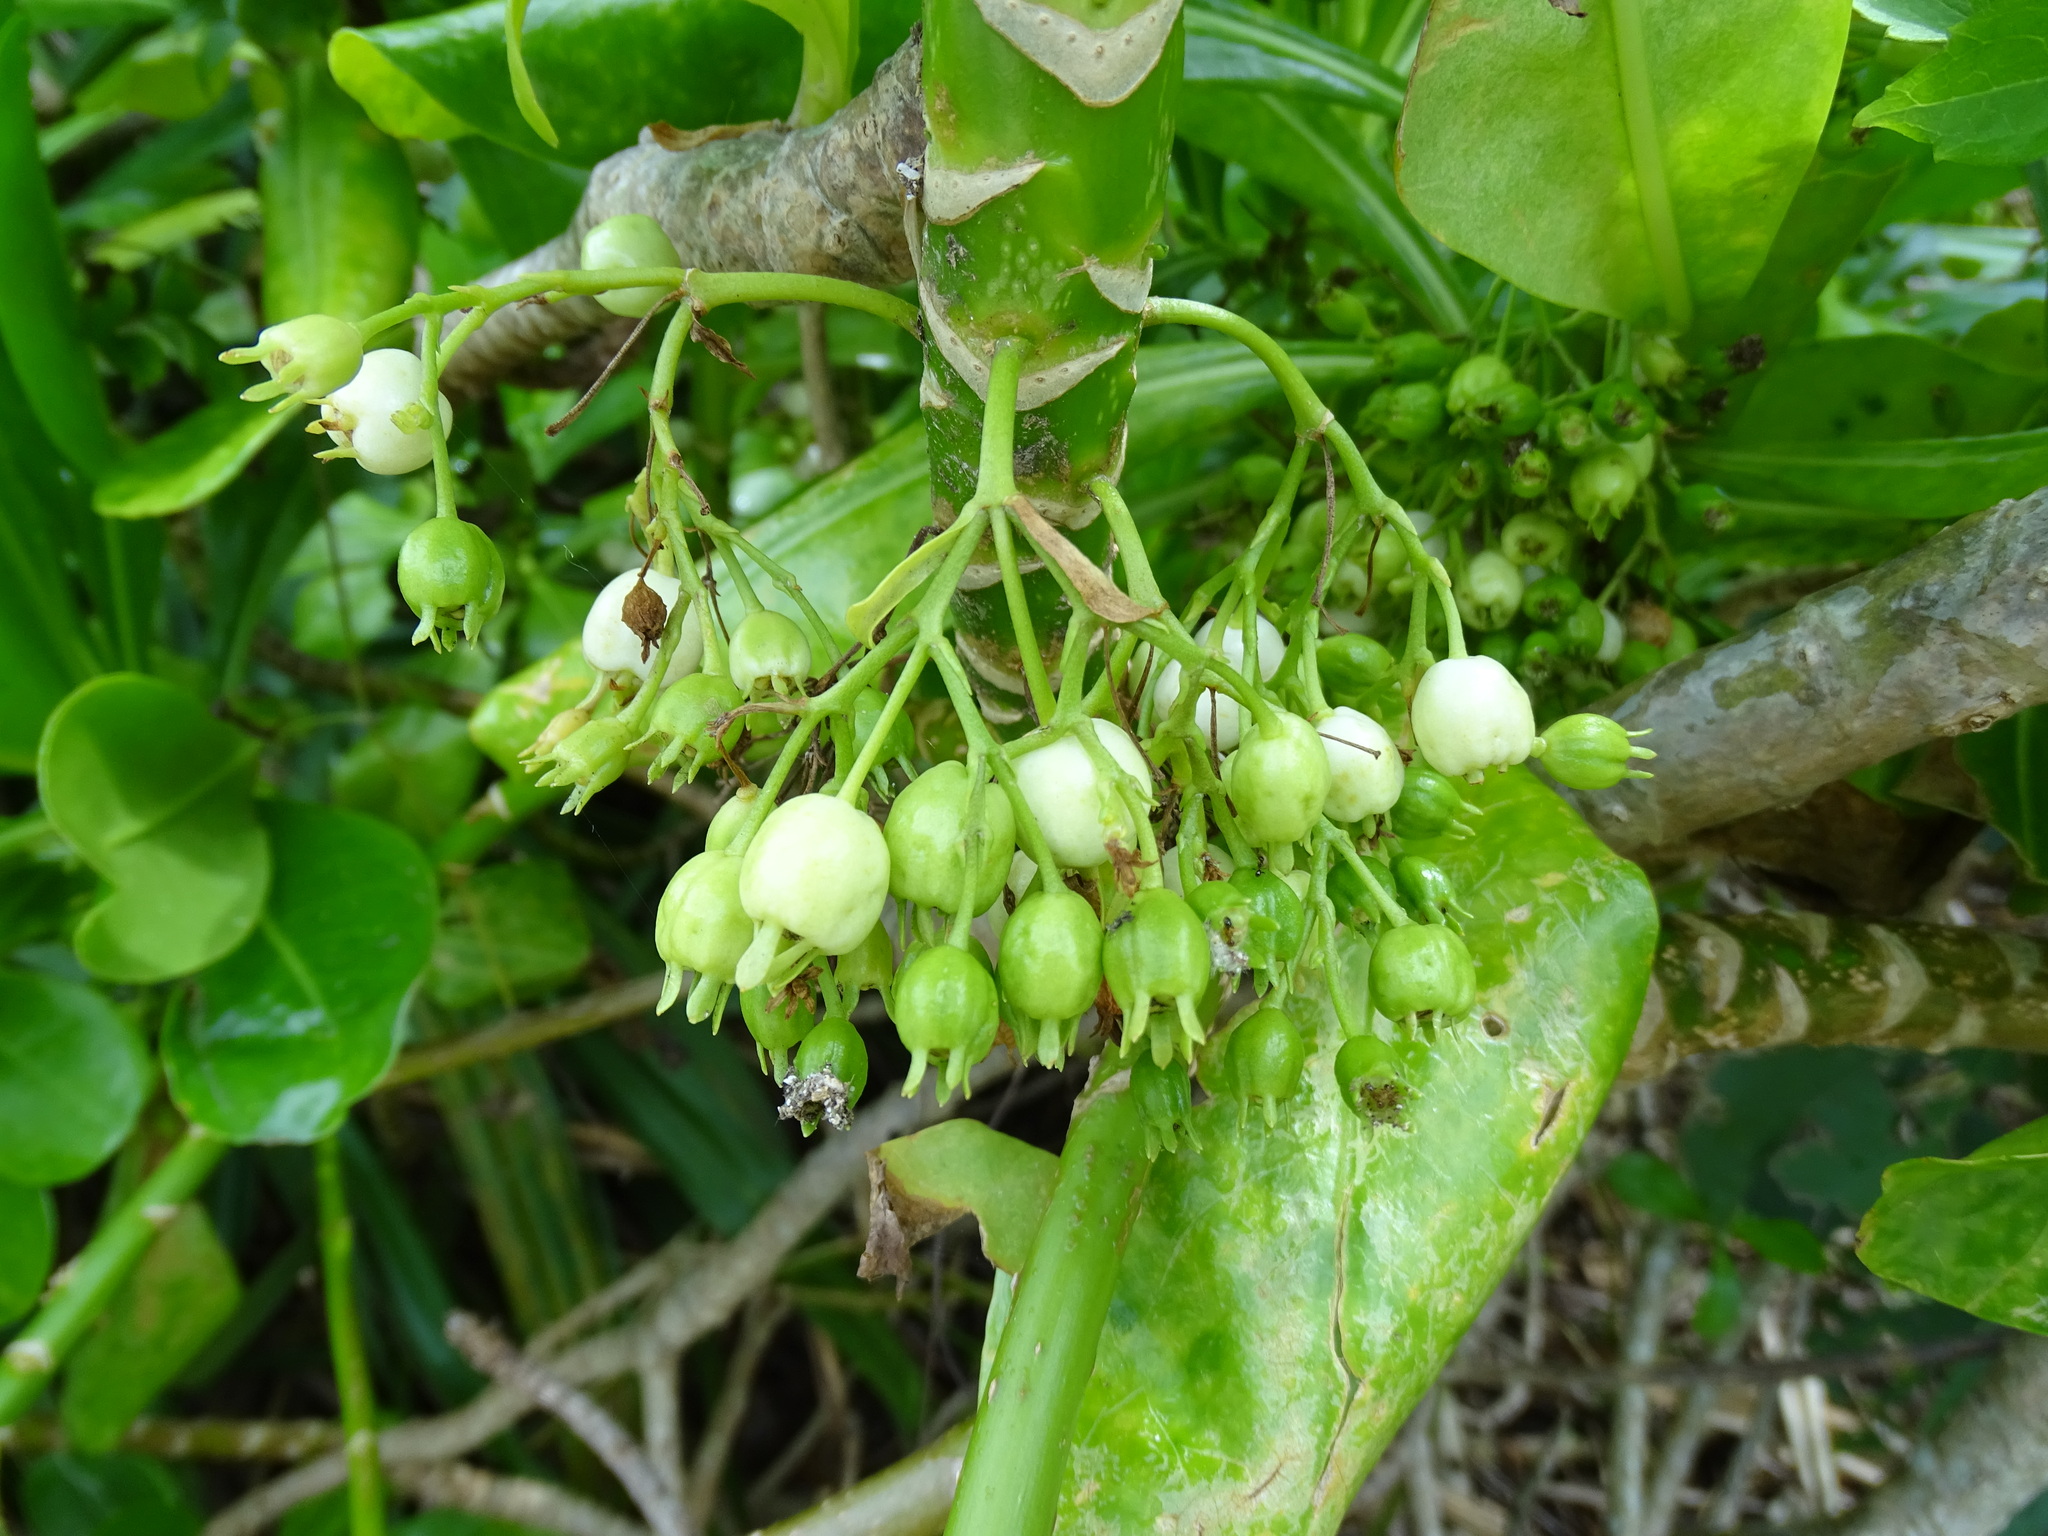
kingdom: Plantae
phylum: Tracheophyta
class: Magnoliopsida
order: Asterales
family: Goodeniaceae
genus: Scaevola
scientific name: Scaevola taccada
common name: Sea lettucetree
